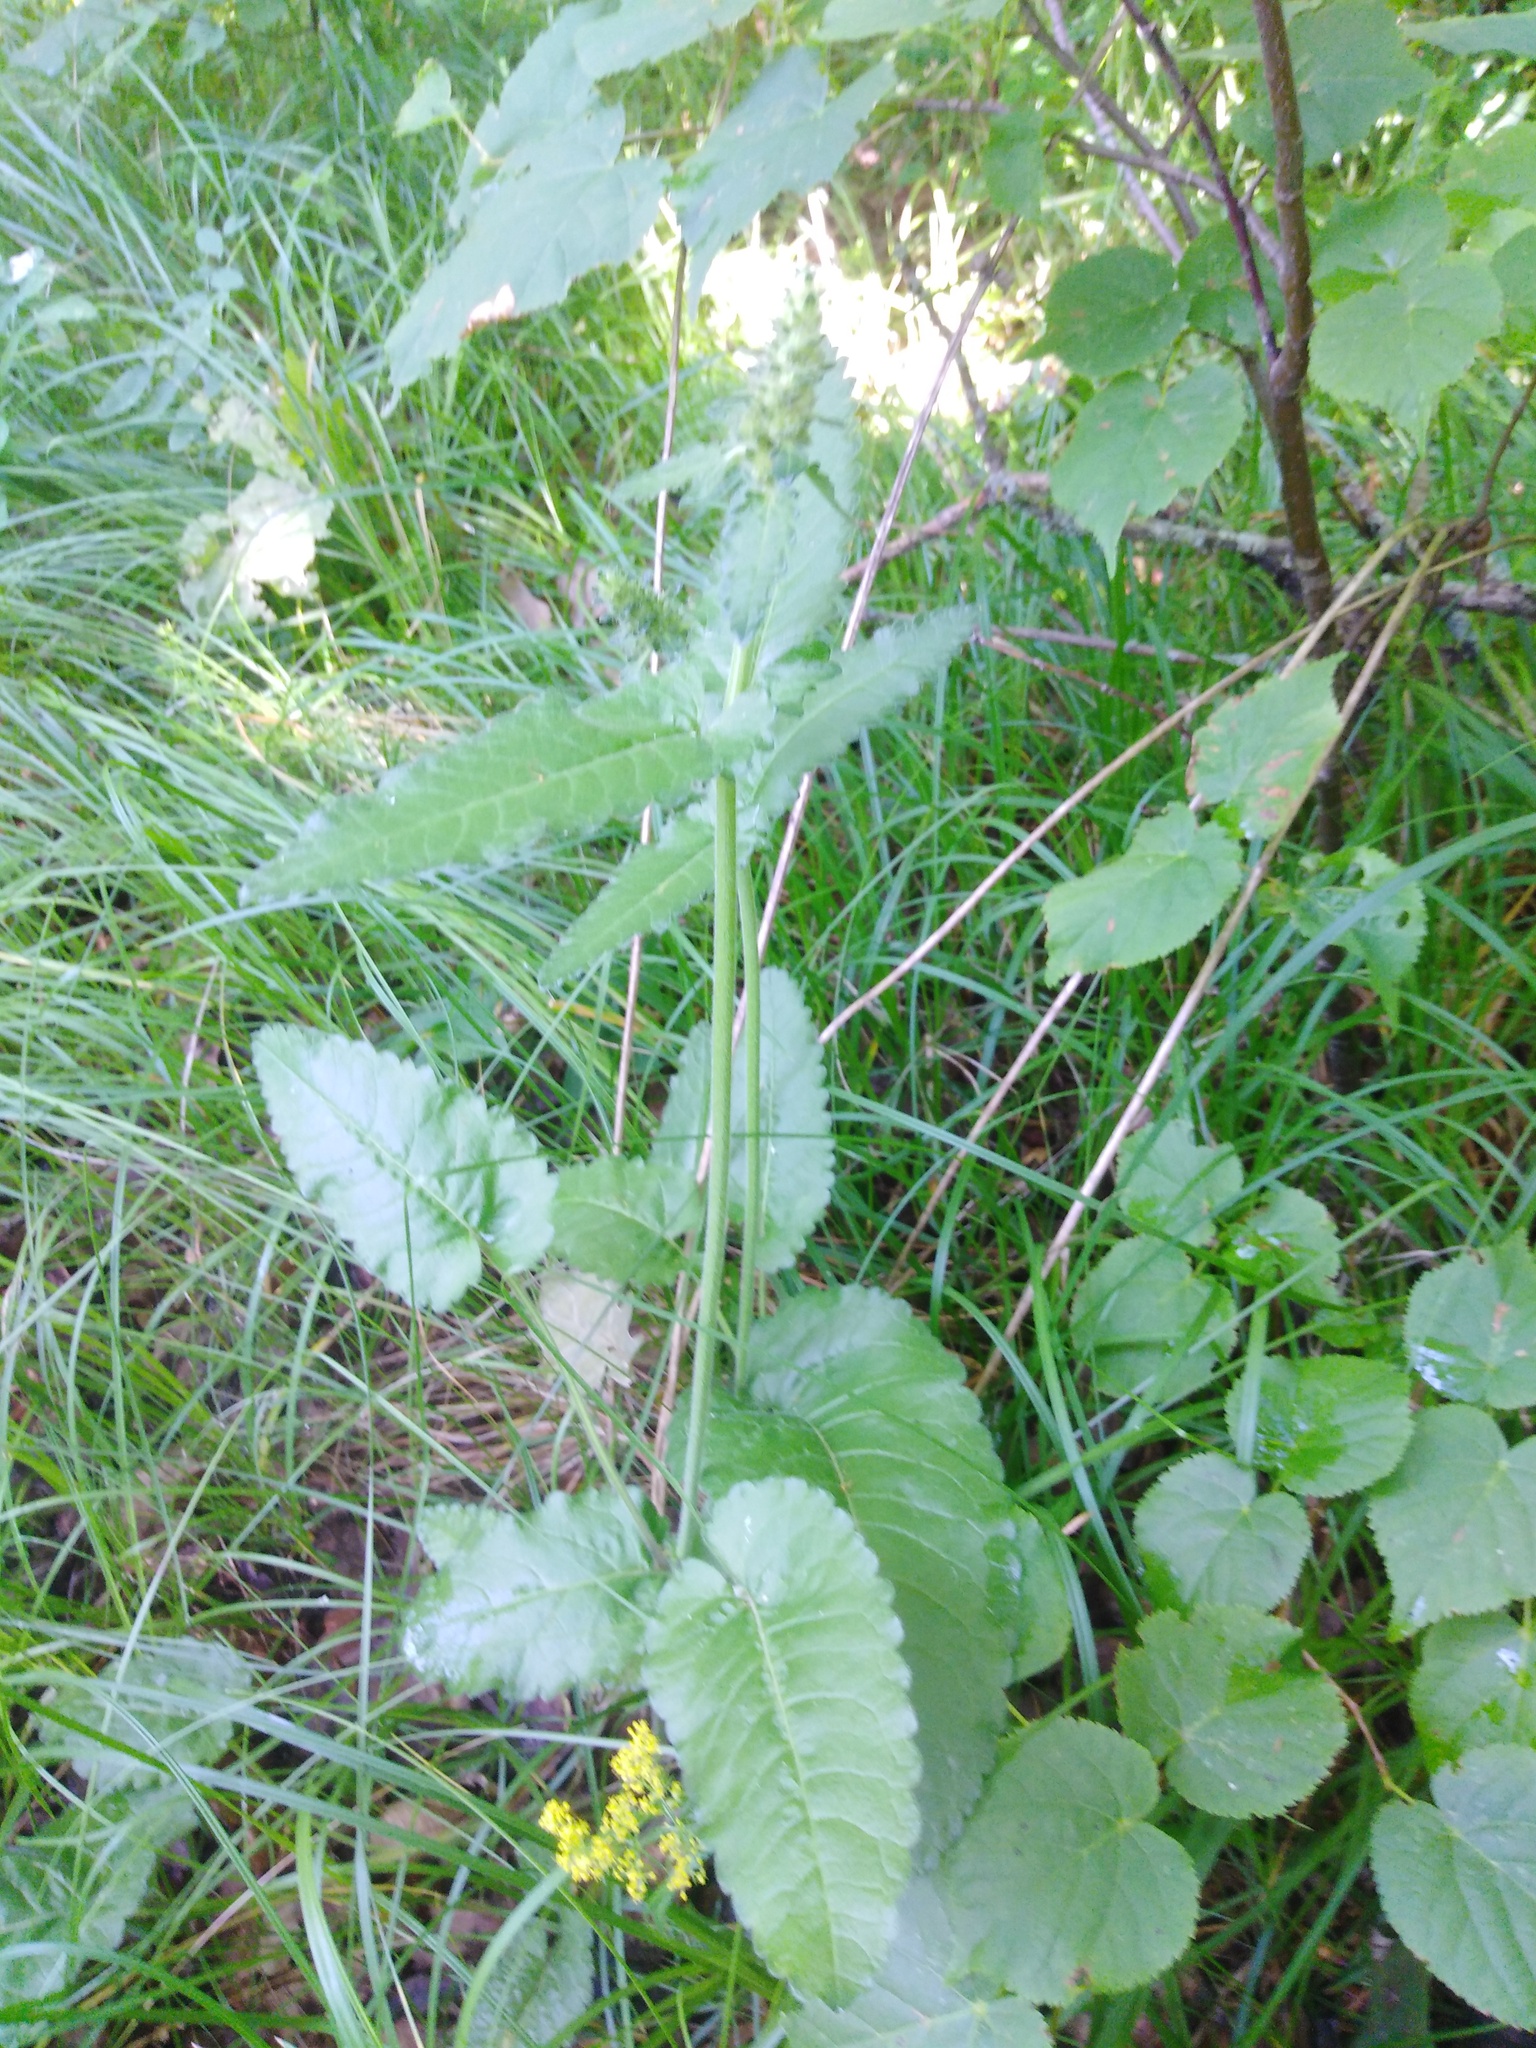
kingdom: Plantae
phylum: Tracheophyta
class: Magnoliopsida
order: Lamiales
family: Lamiaceae
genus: Betonica
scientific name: Betonica officinalis
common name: Bishop's-wort
